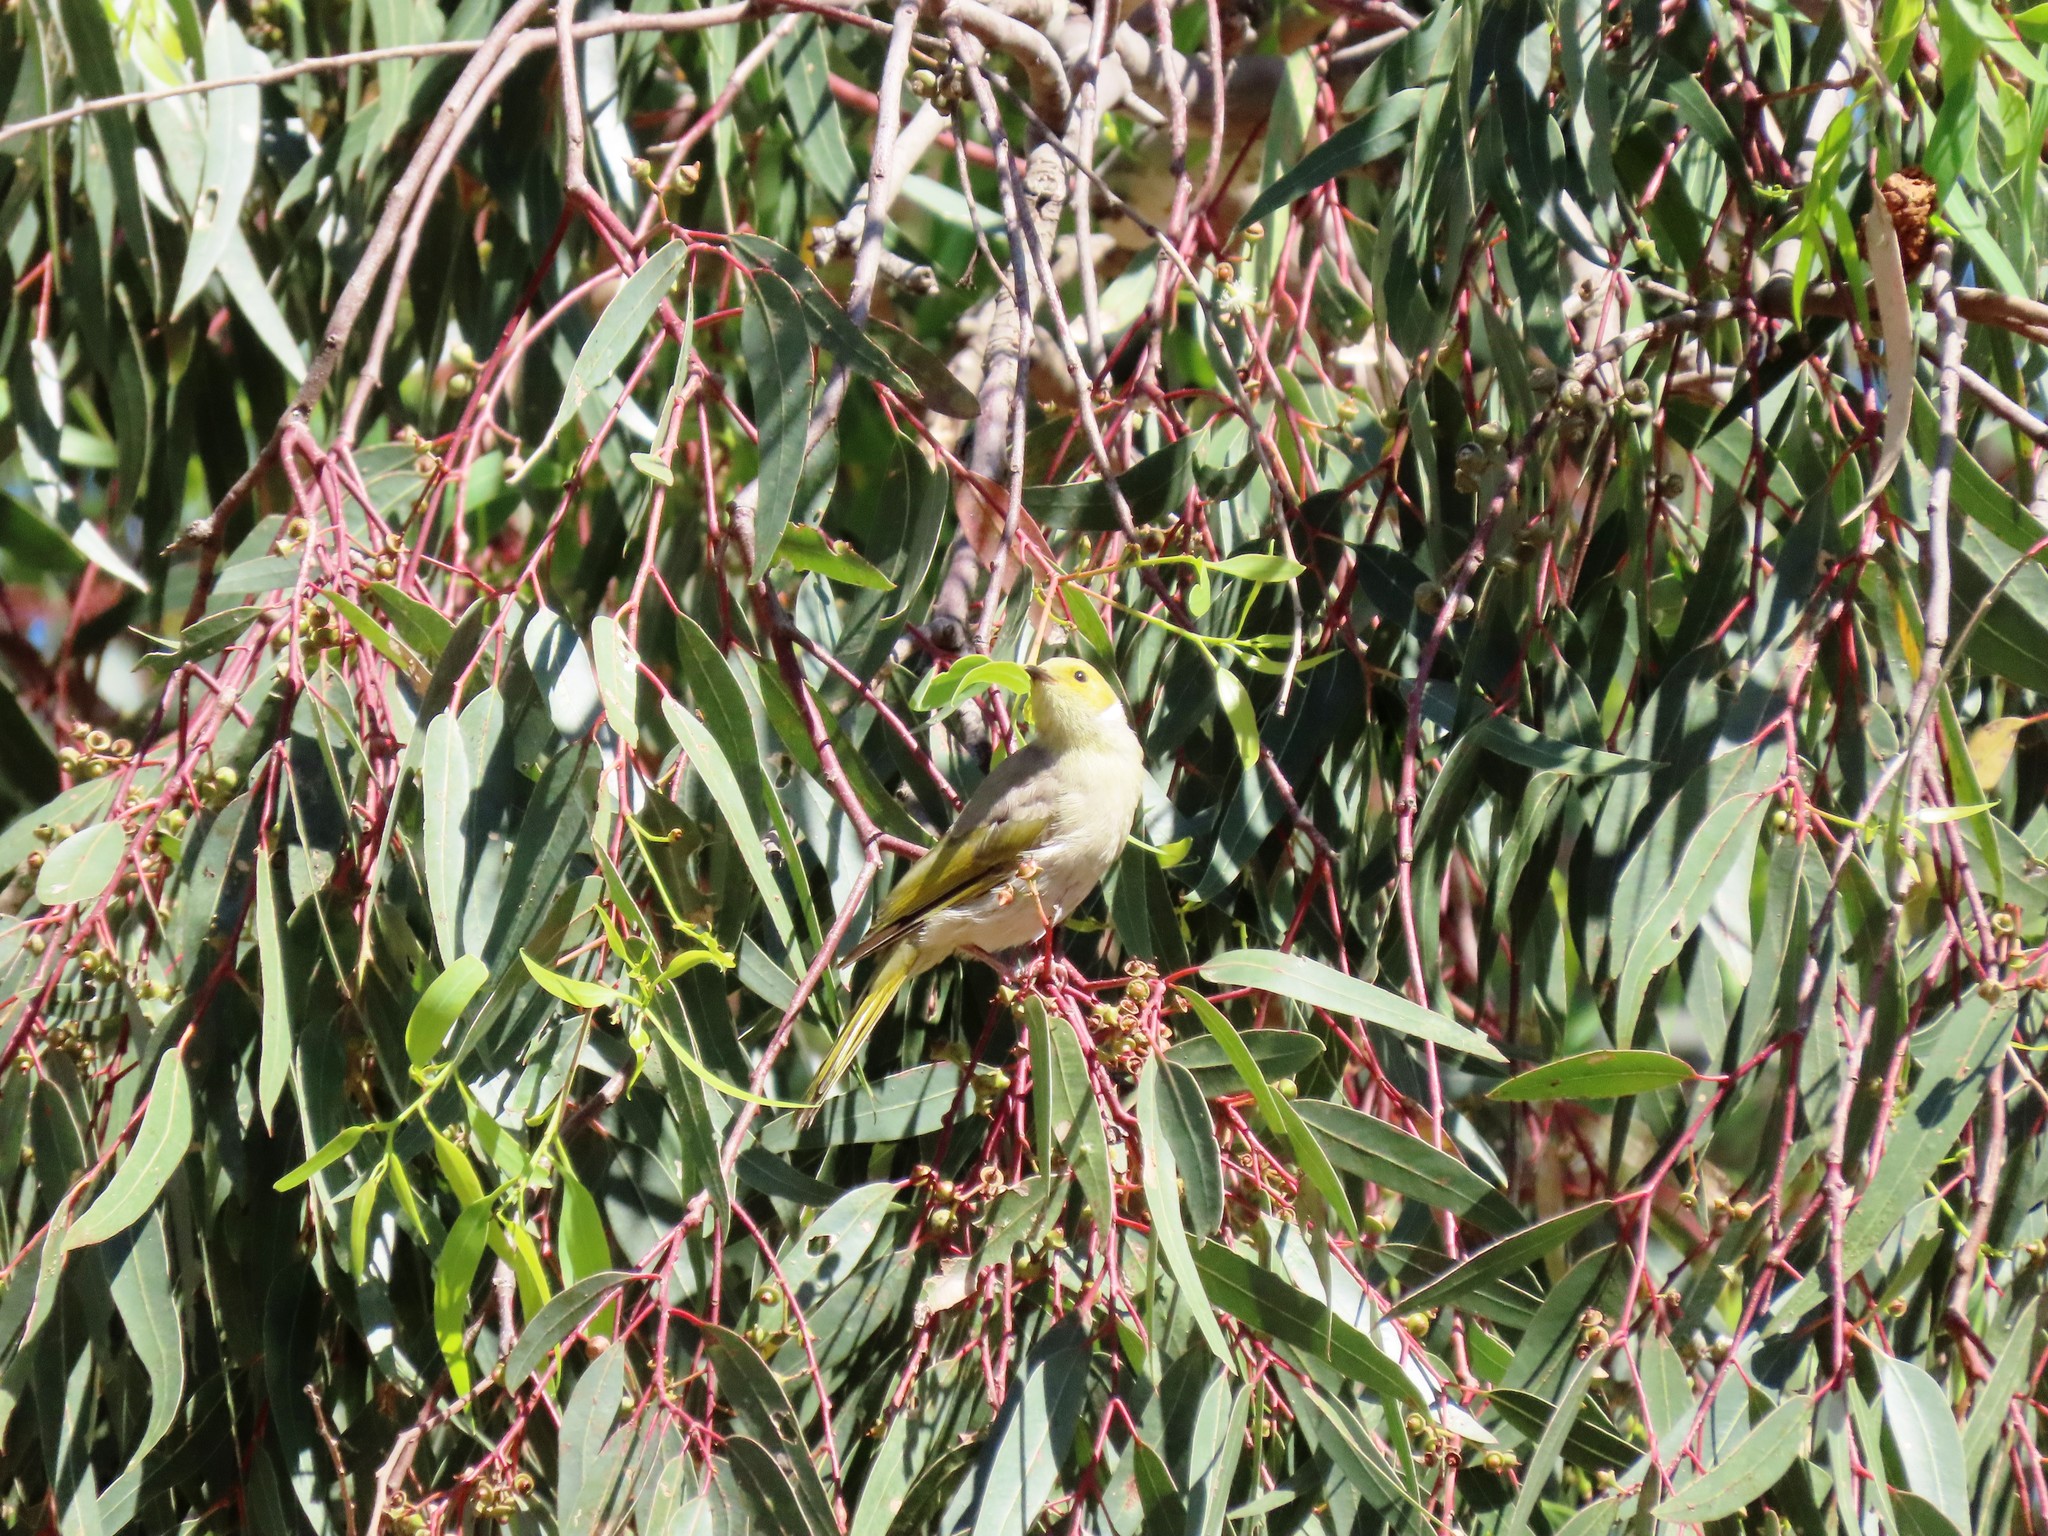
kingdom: Animalia
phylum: Chordata
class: Aves
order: Passeriformes
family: Meliphagidae
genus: Ptilotula
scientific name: Ptilotula penicillata
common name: White-plumed honeyeater
